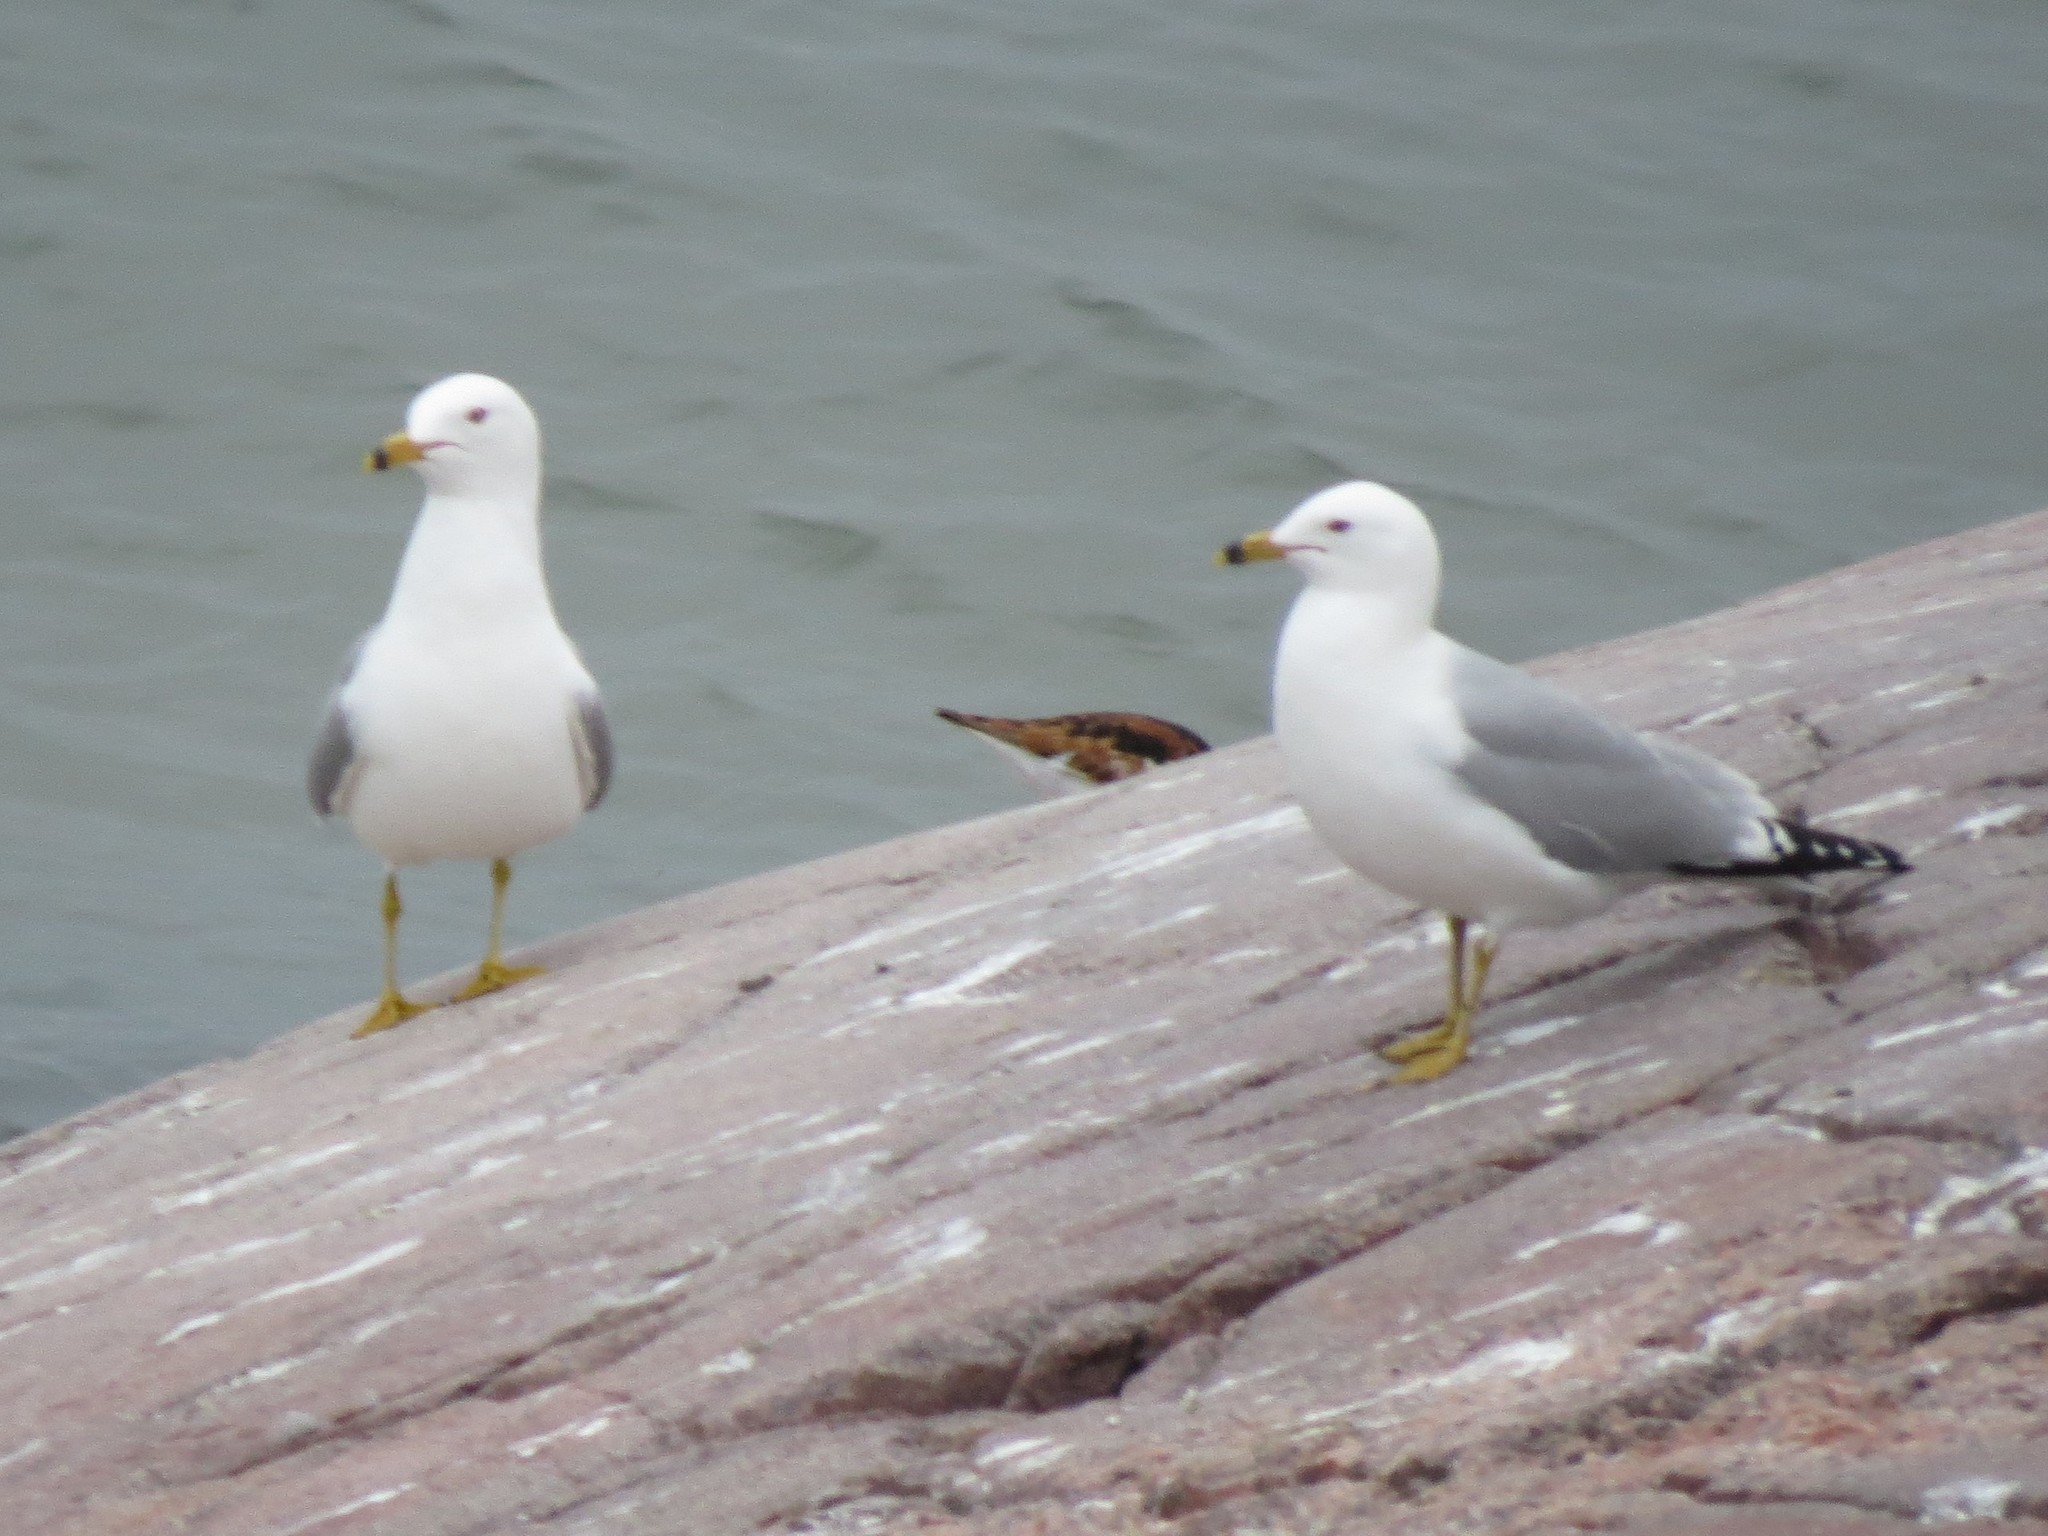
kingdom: Animalia
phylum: Chordata
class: Aves
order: Charadriiformes
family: Scolopacidae
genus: Arenaria
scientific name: Arenaria interpres
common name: Ruddy turnstone
